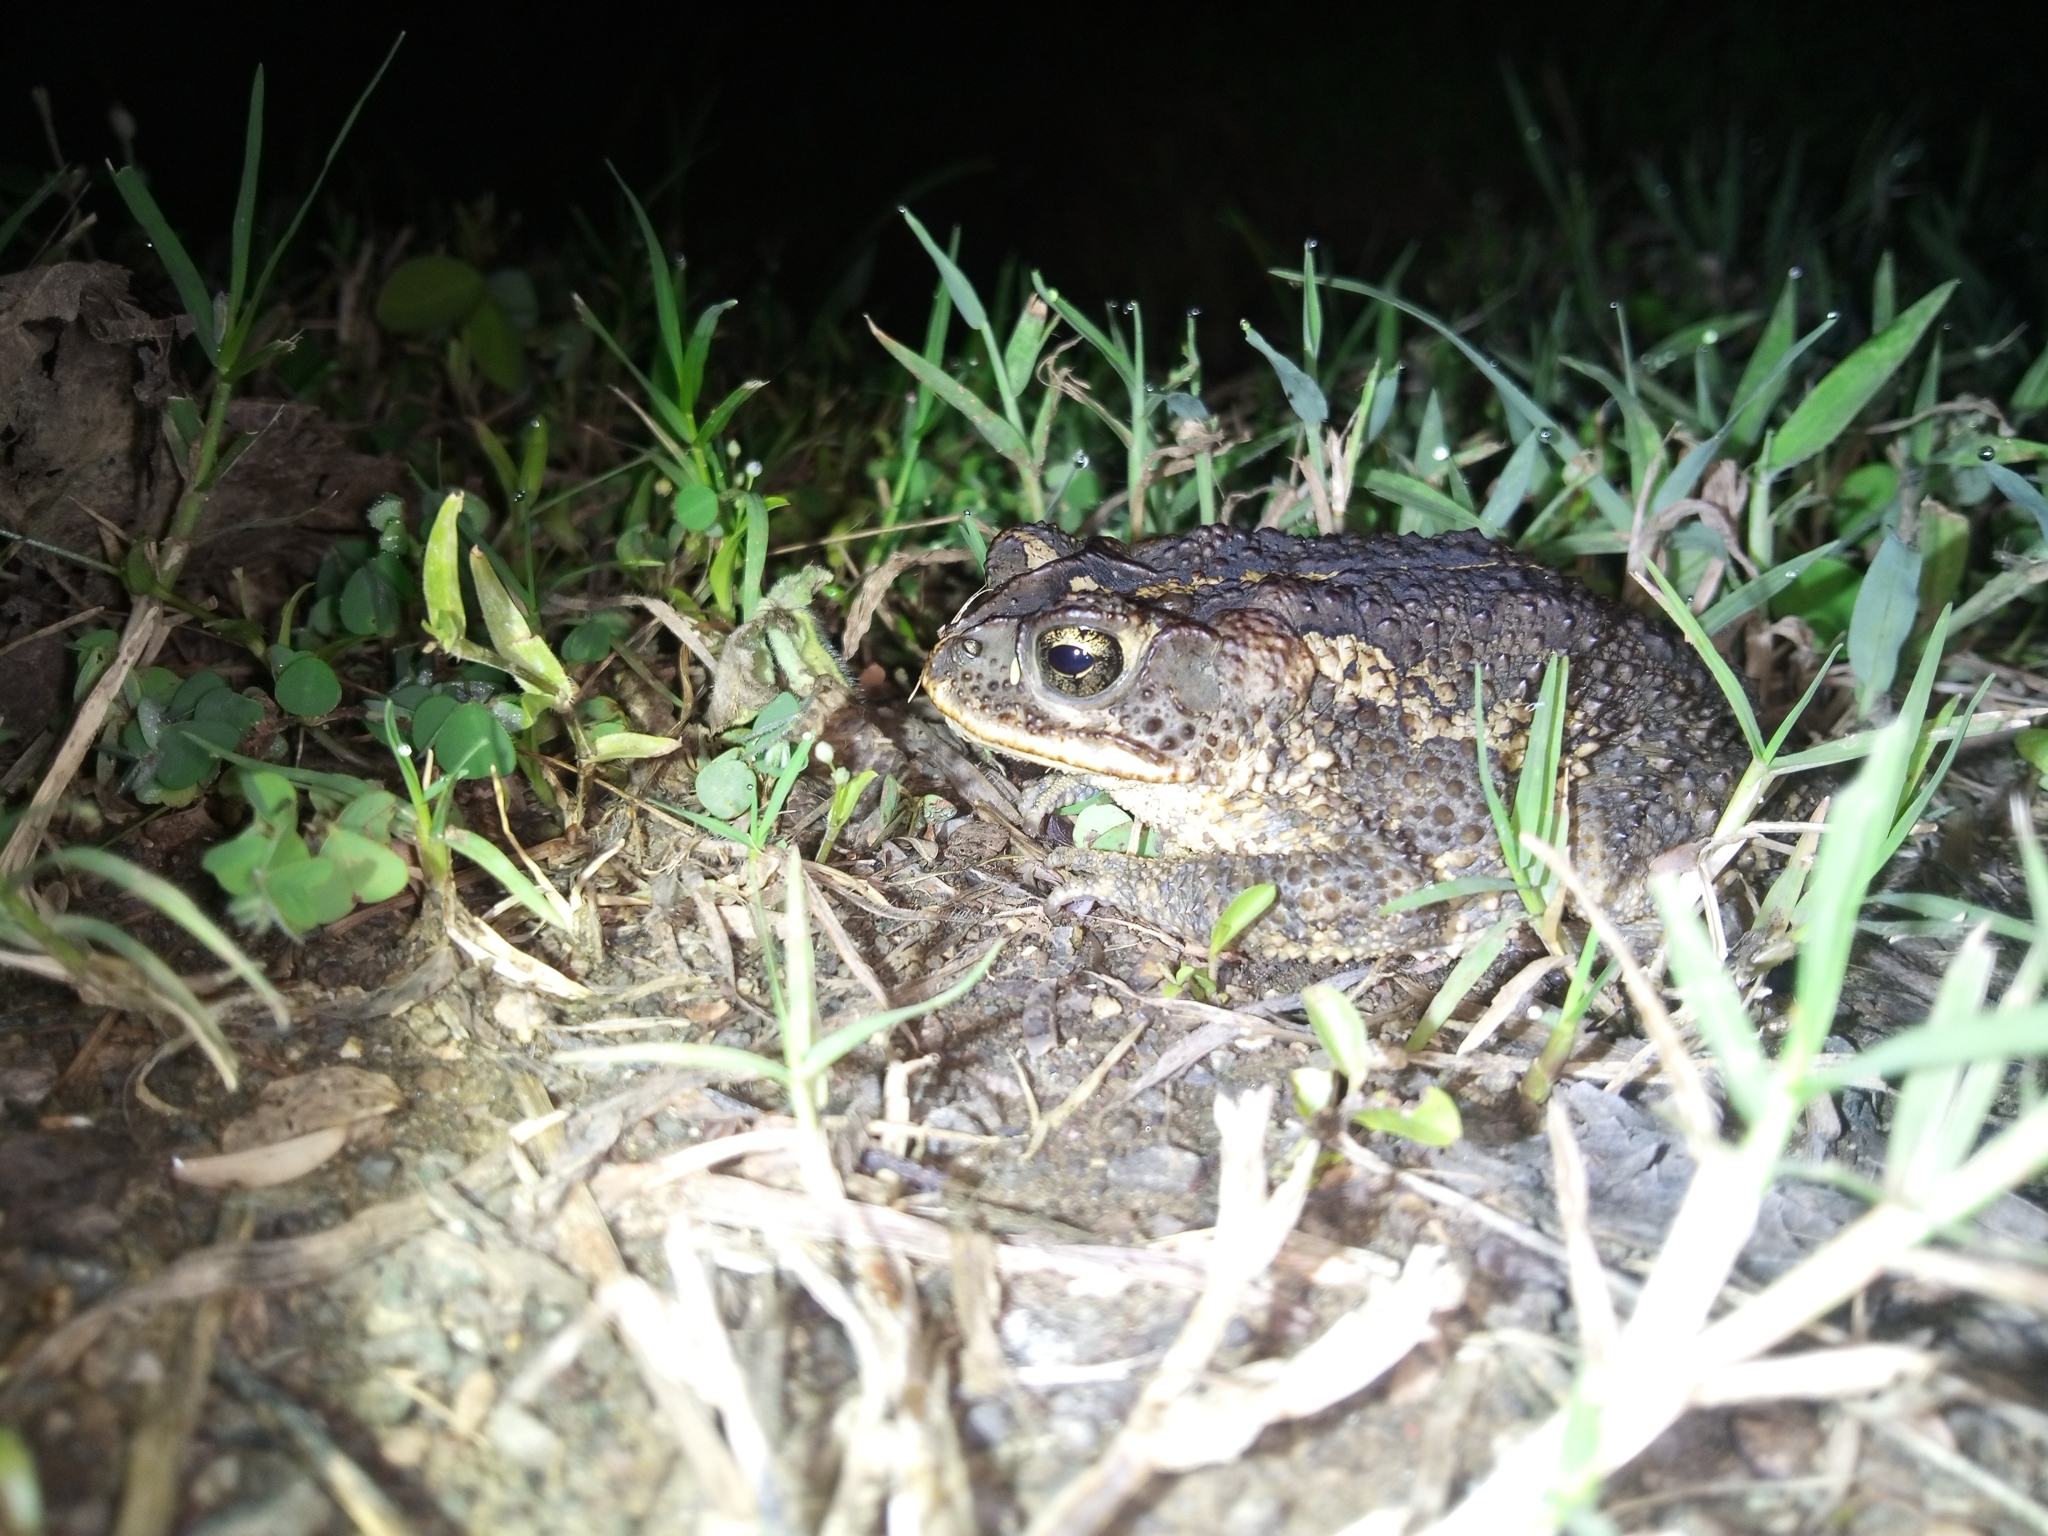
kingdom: Animalia
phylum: Chordata
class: Amphibia
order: Anura
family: Bufonidae
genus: Incilius
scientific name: Incilius coccifer
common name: Southern round-gland toad
